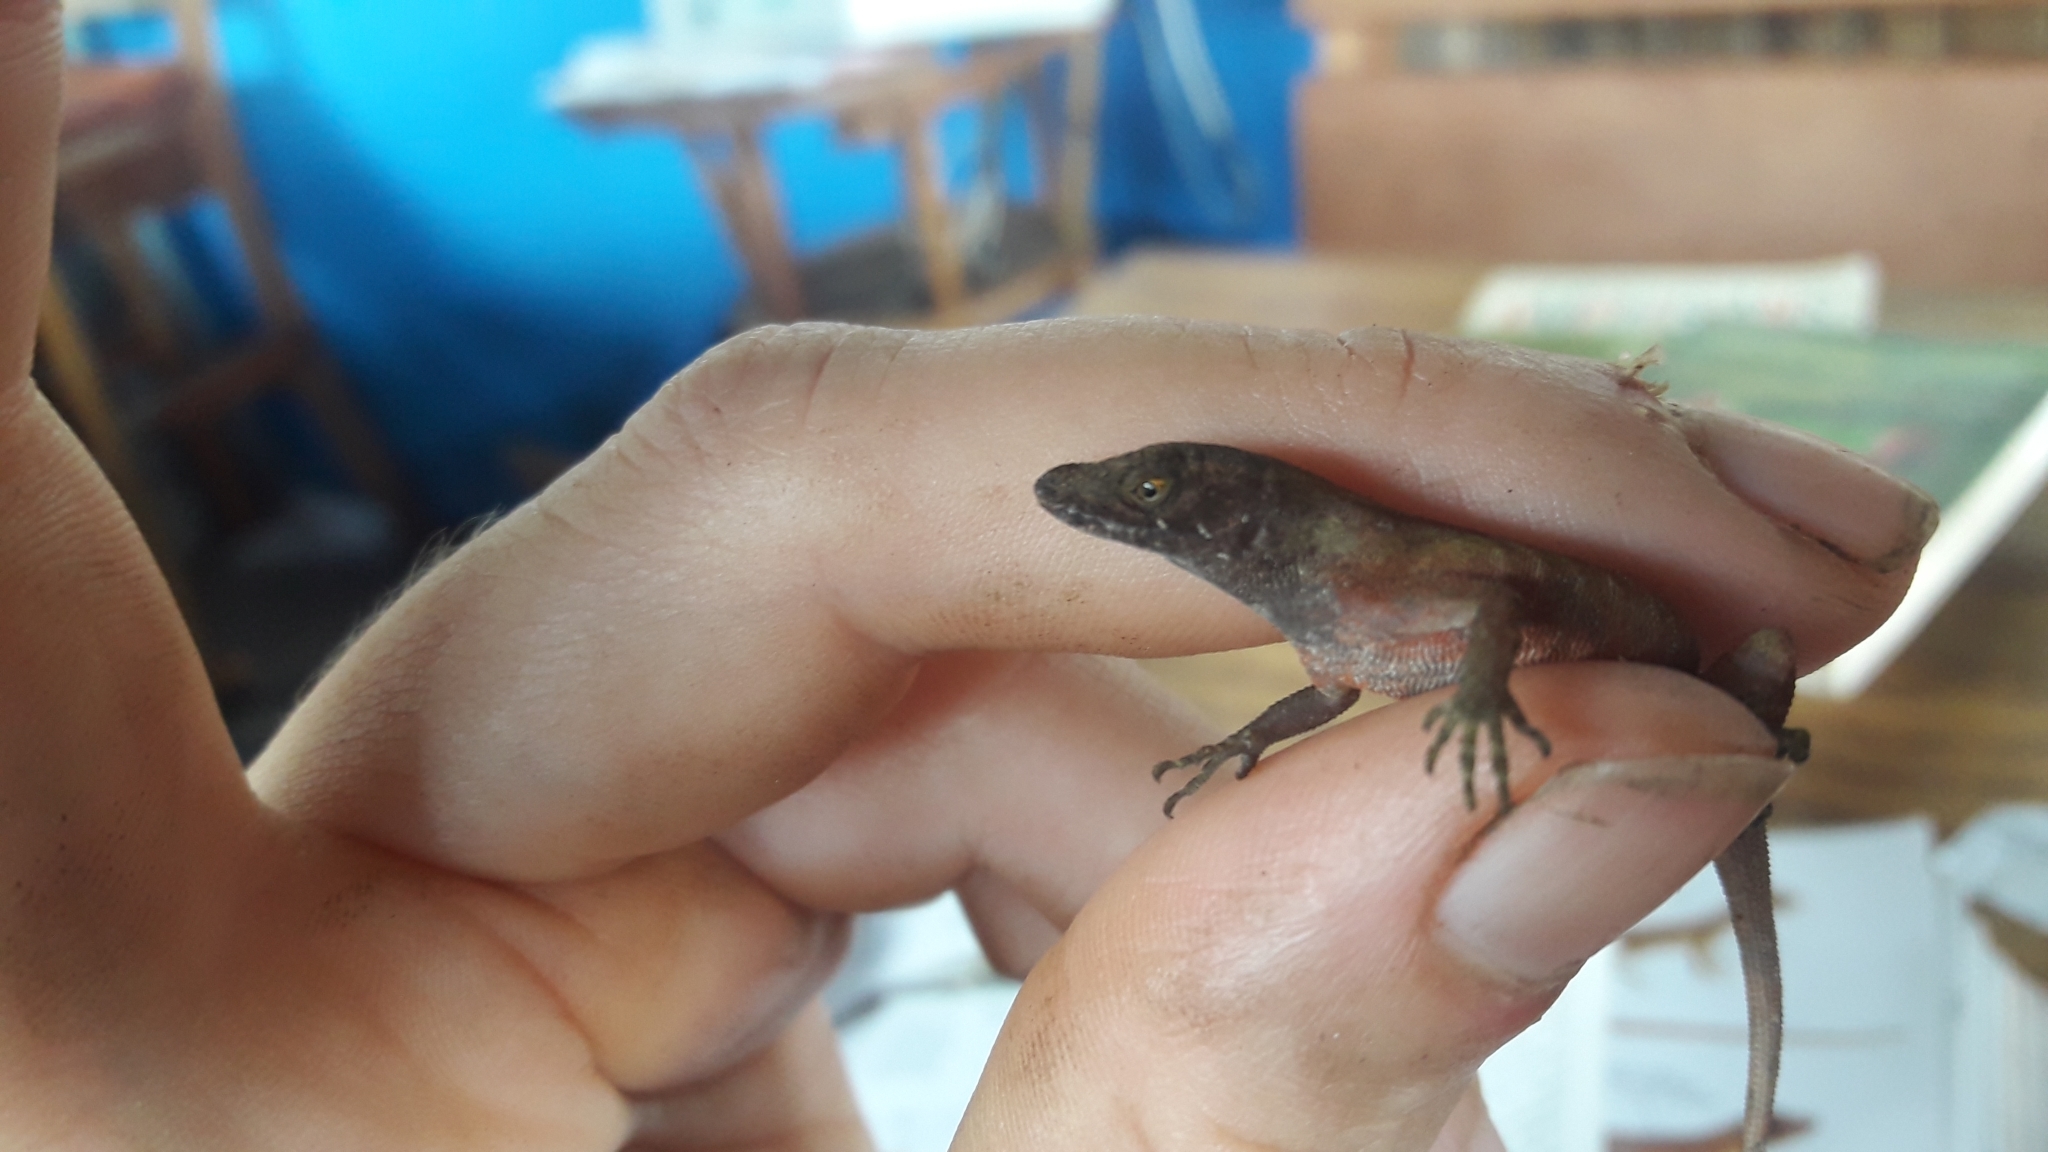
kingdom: Animalia
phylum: Chordata
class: Squamata
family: Dactyloidae
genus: Anolis
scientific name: Anolis humilis
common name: Humble anole
